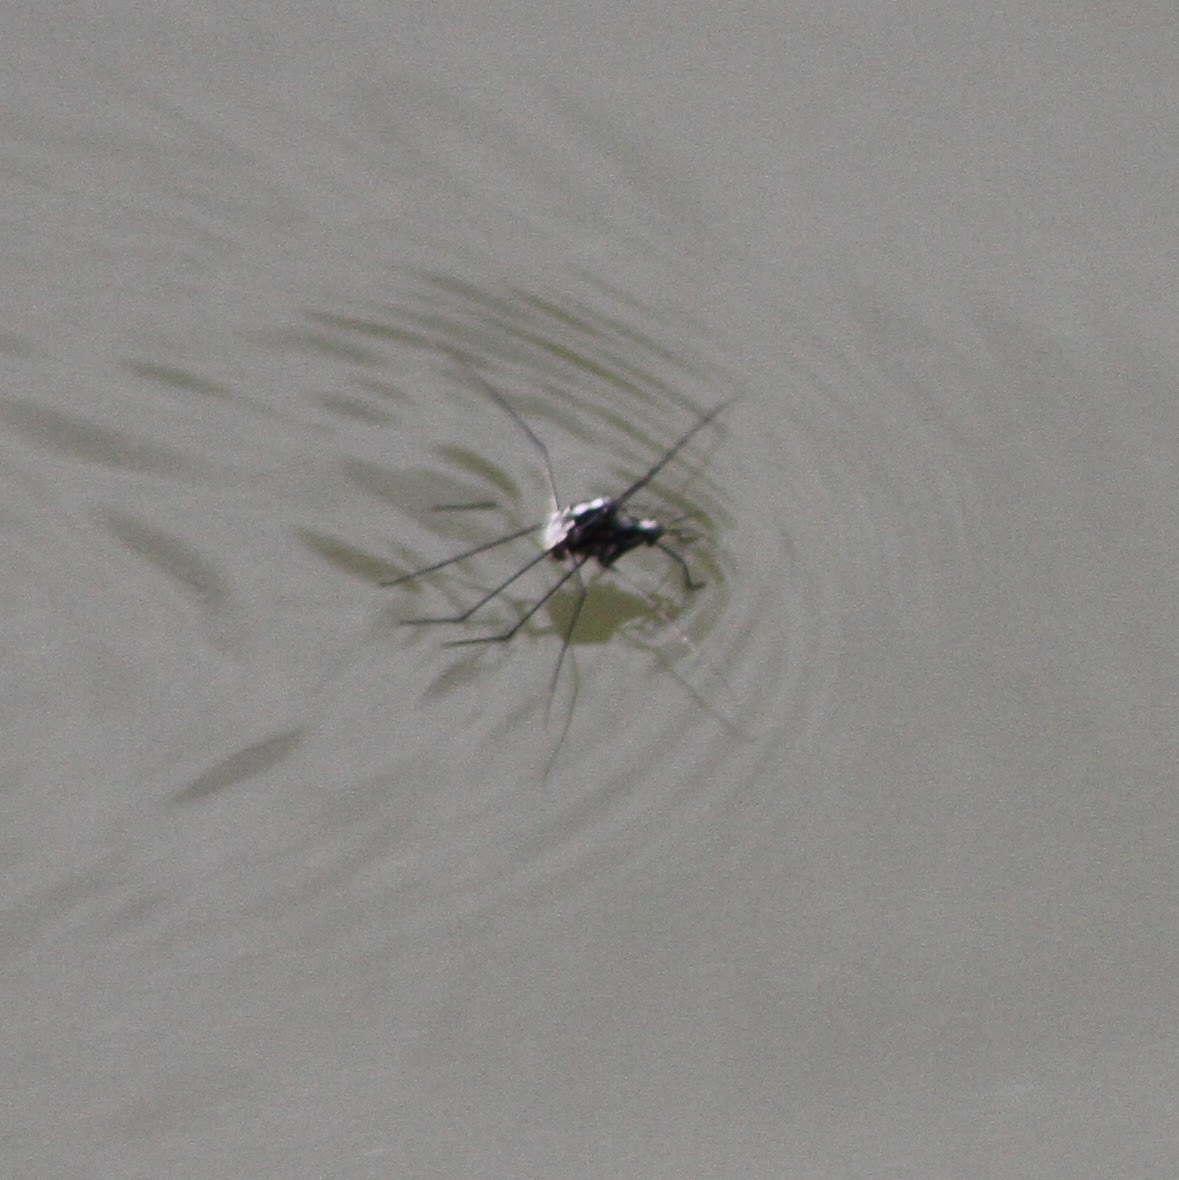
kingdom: Animalia
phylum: Arthropoda
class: Insecta
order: Hemiptera
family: Gerridae
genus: Metrobates
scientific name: Metrobates
